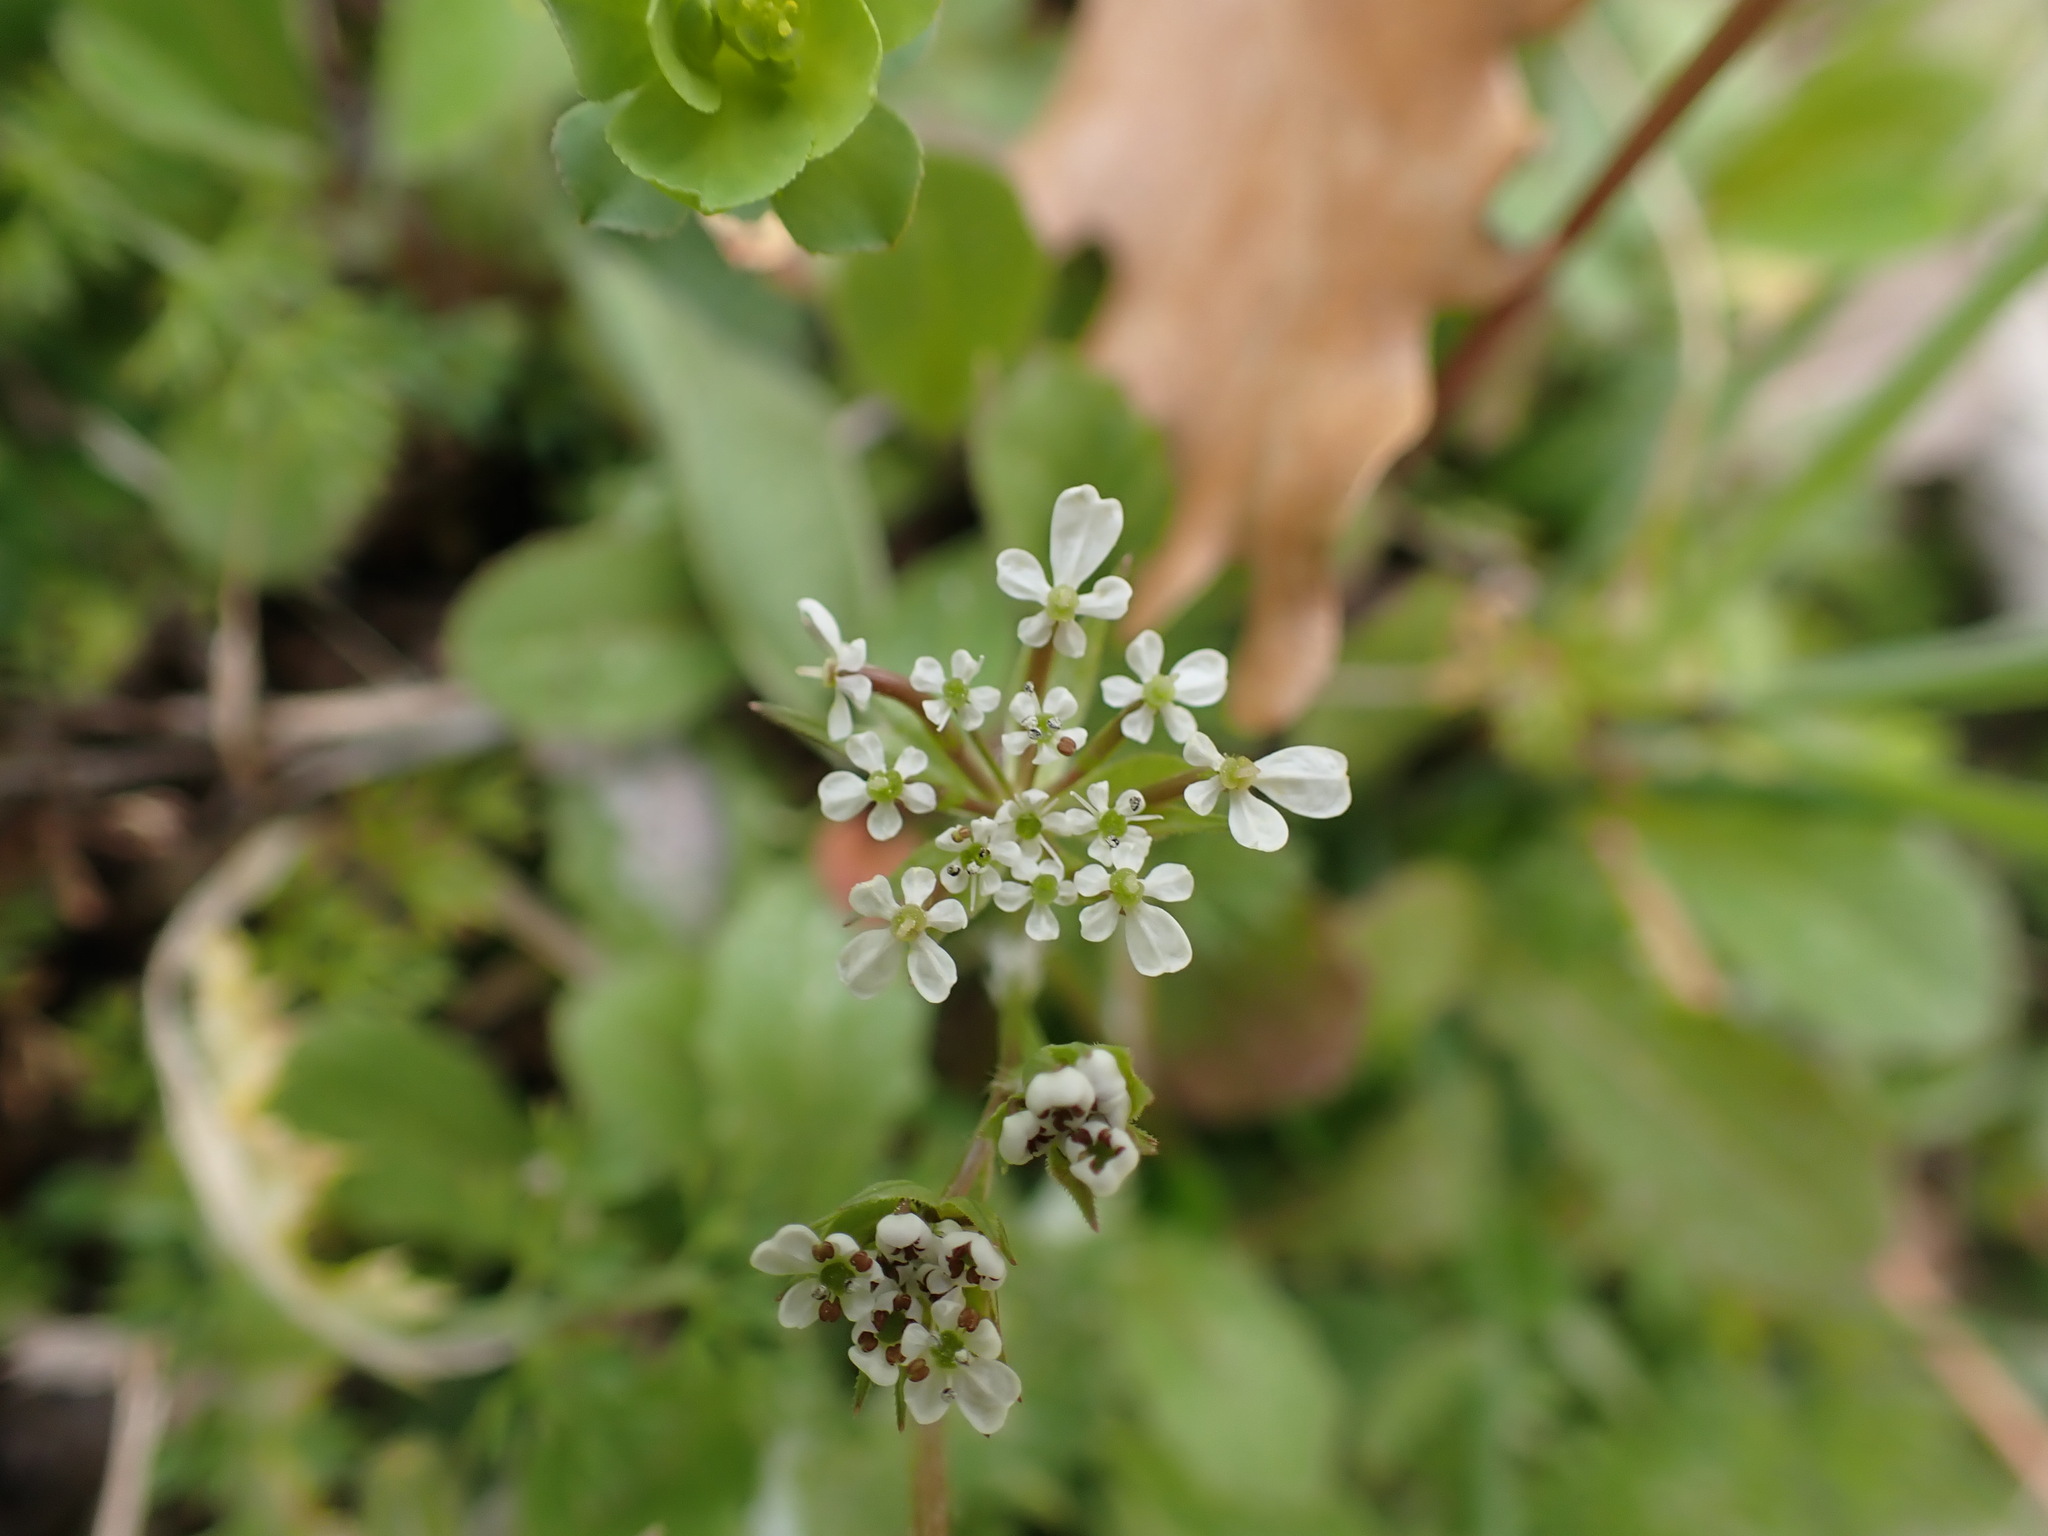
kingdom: Plantae
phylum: Tracheophyta
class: Magnoliopsida
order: Apiales
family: Apiaceae
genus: Scandix
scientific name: Scandix pecten-veneris
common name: Shepherd's-needle
